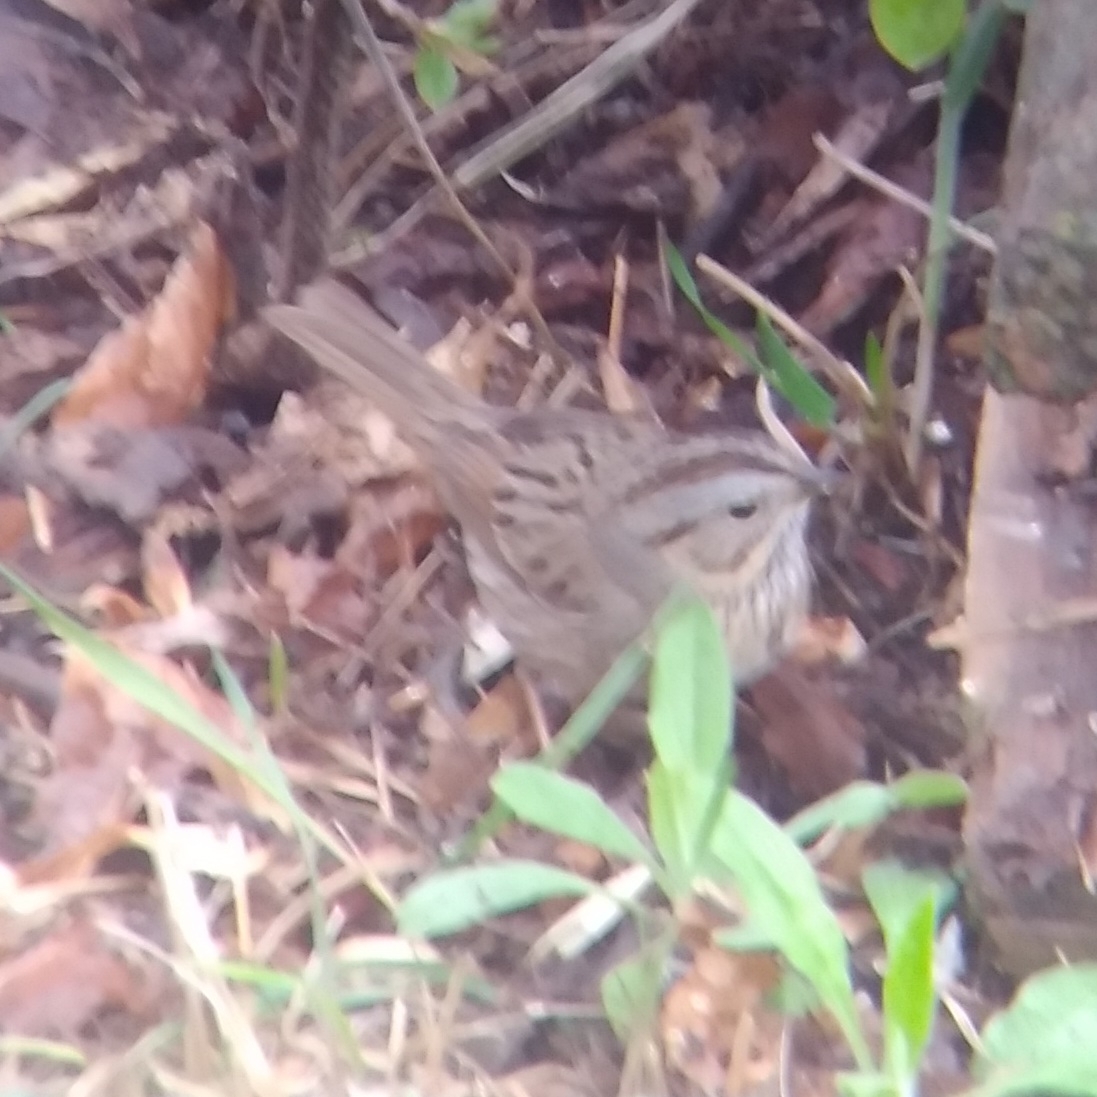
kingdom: Animalia
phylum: Chordata
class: Aves
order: Passeriformes
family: Passerellidae
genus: Melospiza
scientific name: Melospiza lincolnii
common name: Lincoln's sparrow
